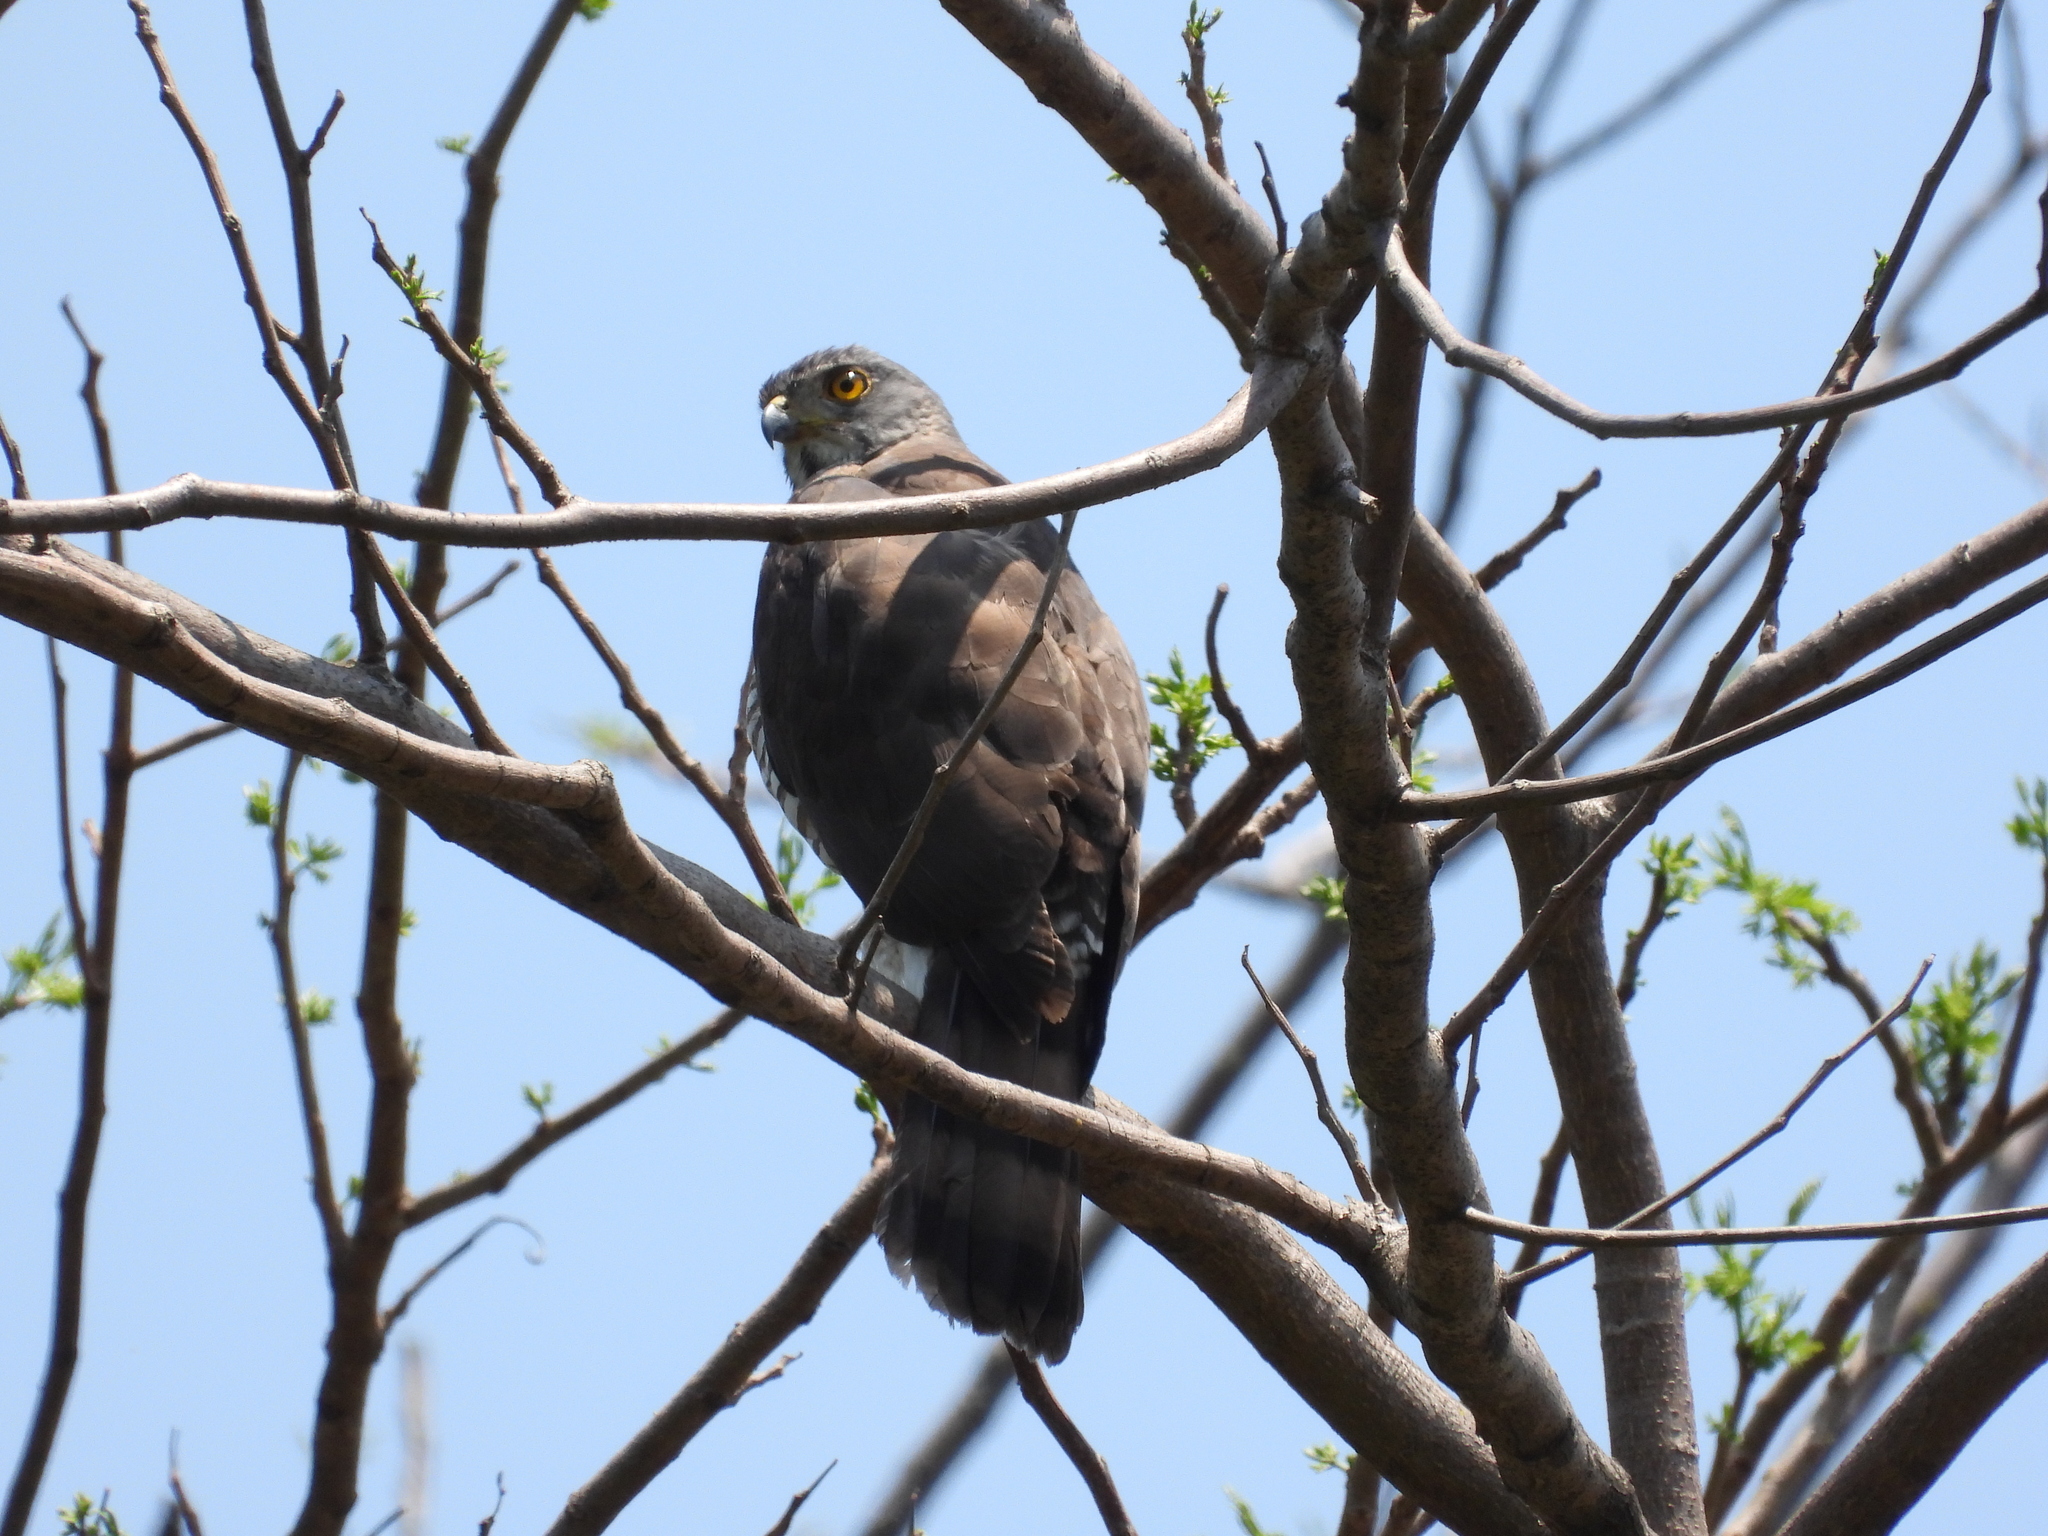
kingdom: Animalia
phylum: Chordata
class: Aves
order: Accipitriformes
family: Accipitridae
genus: Accipiter
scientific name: Accipiter trivirgatus
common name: Crested goshawk
